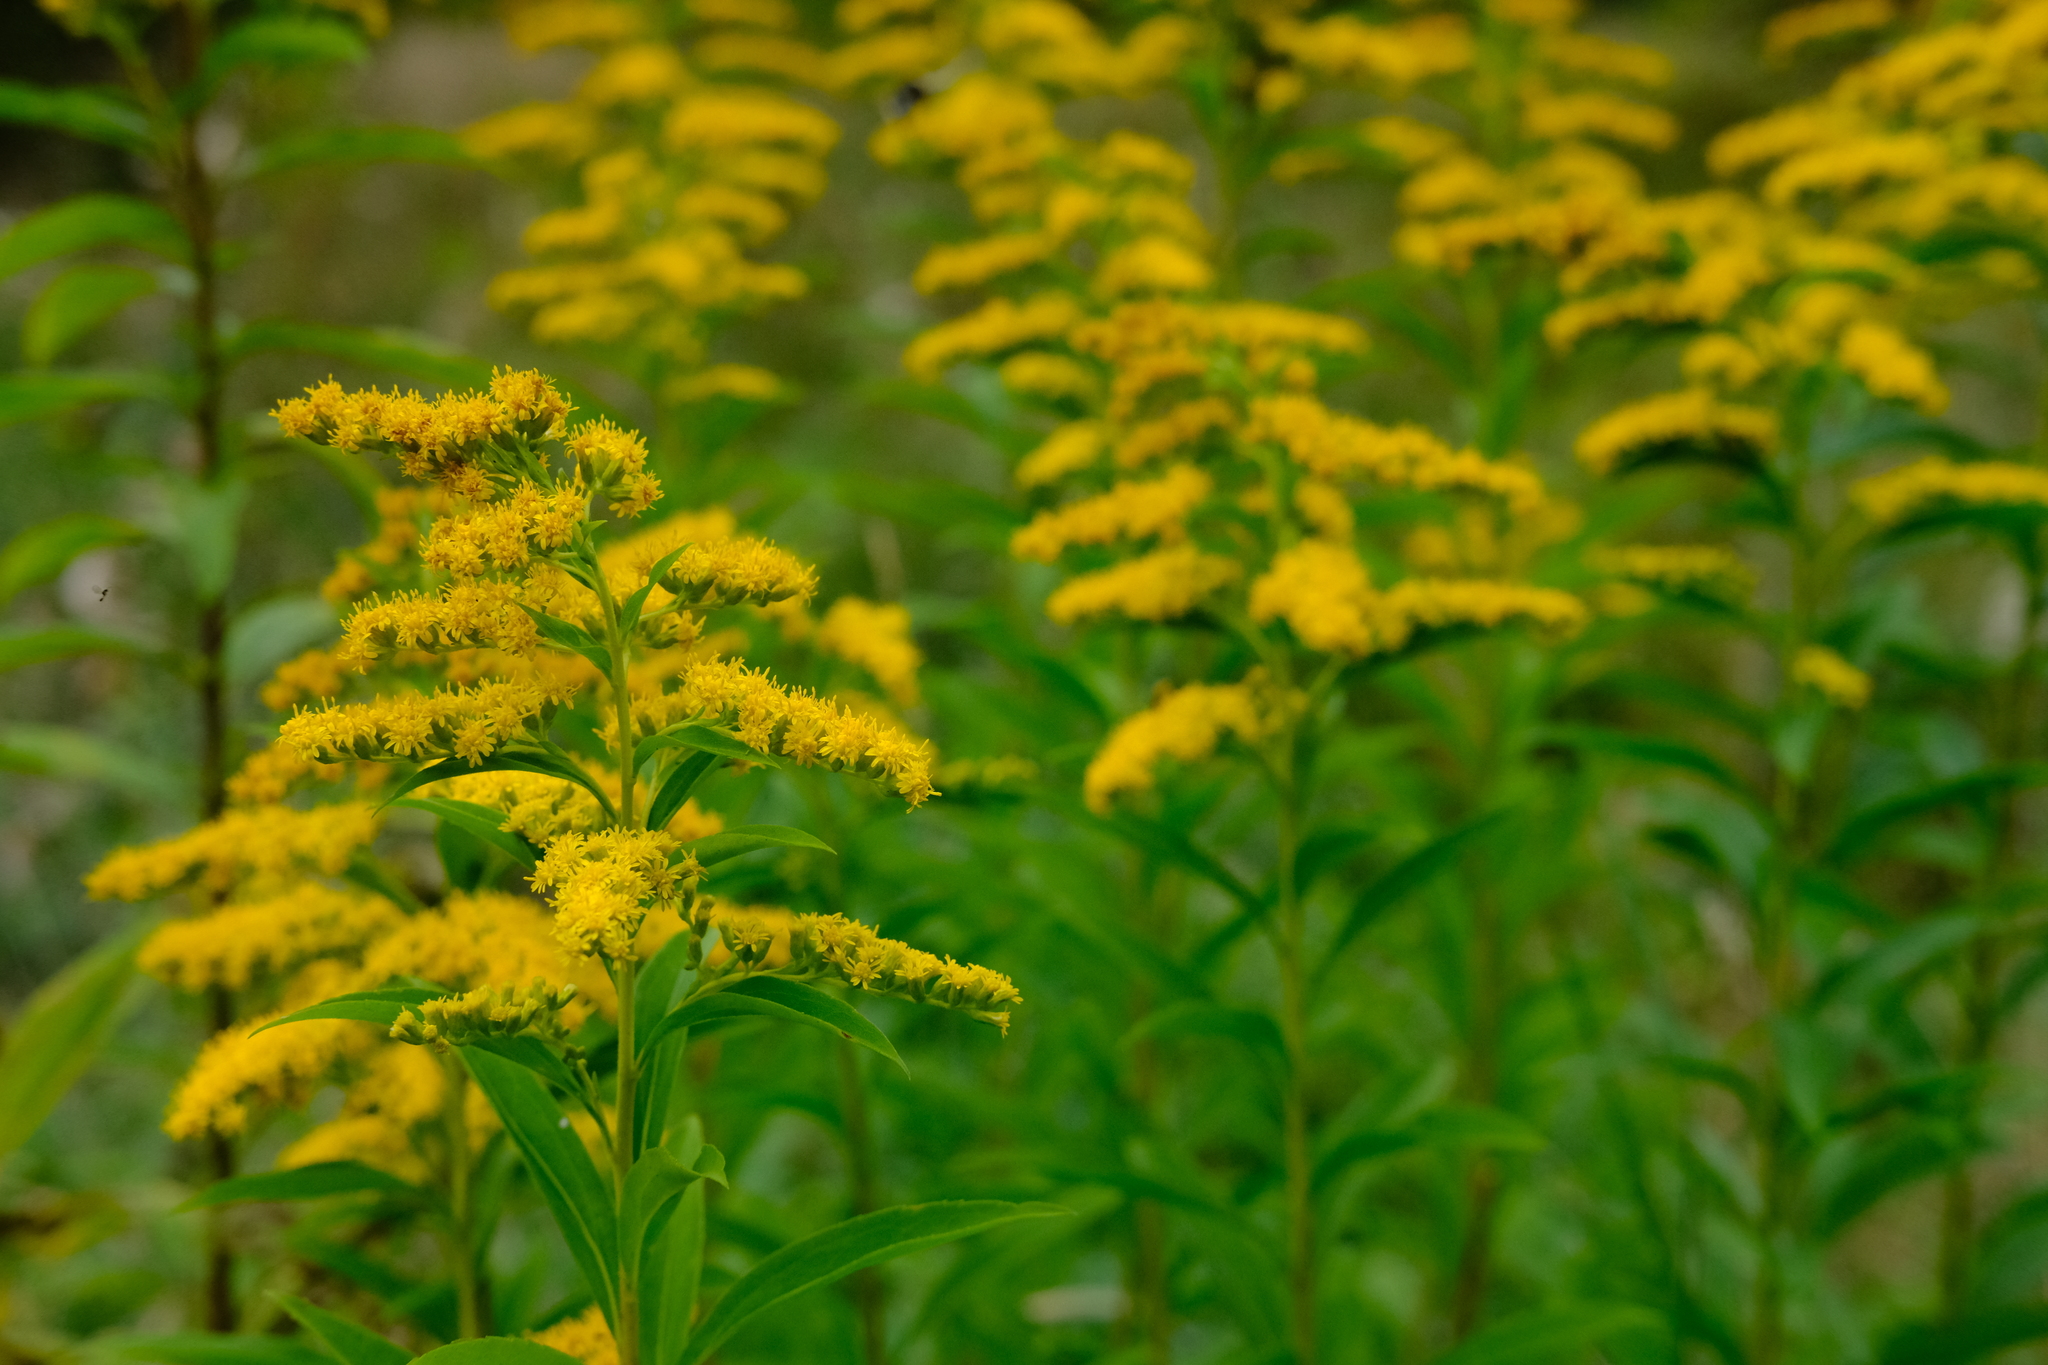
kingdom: Plantae
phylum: Tracheophyta
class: Magnoliopsida
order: Asterales
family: Asteraceae
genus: Solidago
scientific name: Solidago gigantea
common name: Giant goldenrod
